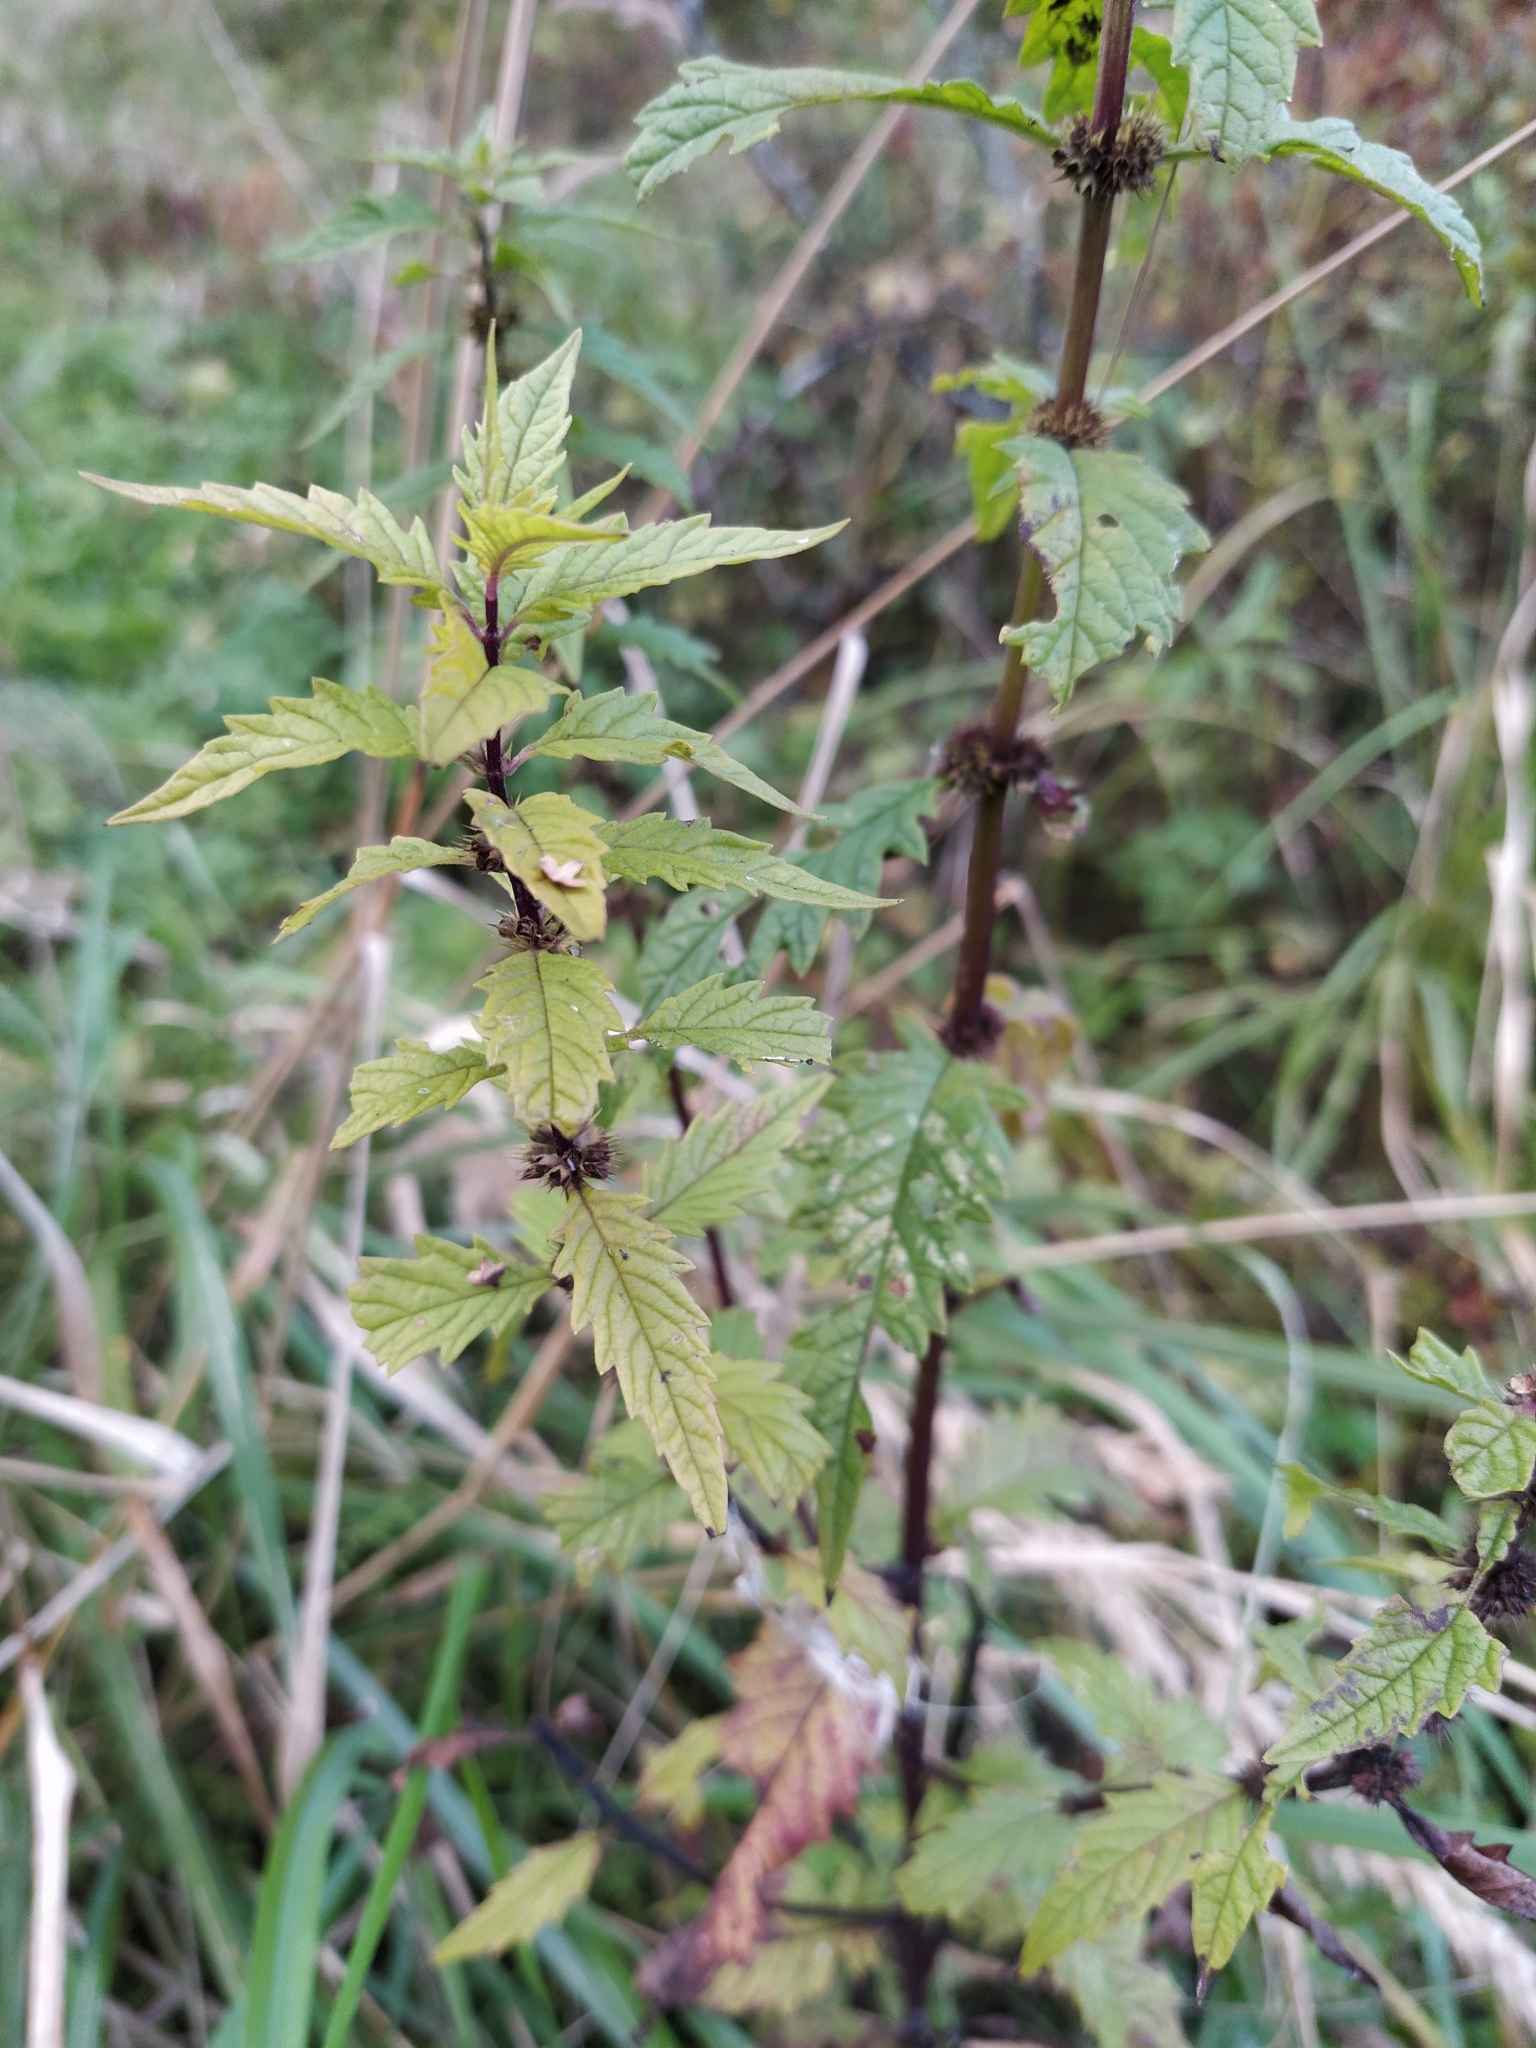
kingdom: Plantae
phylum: Tracheophyta
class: Magnoliopsida
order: Lamiales
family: Lamiaceae
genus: Lycopus
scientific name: Lycopus europaeus
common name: European bugleweed
